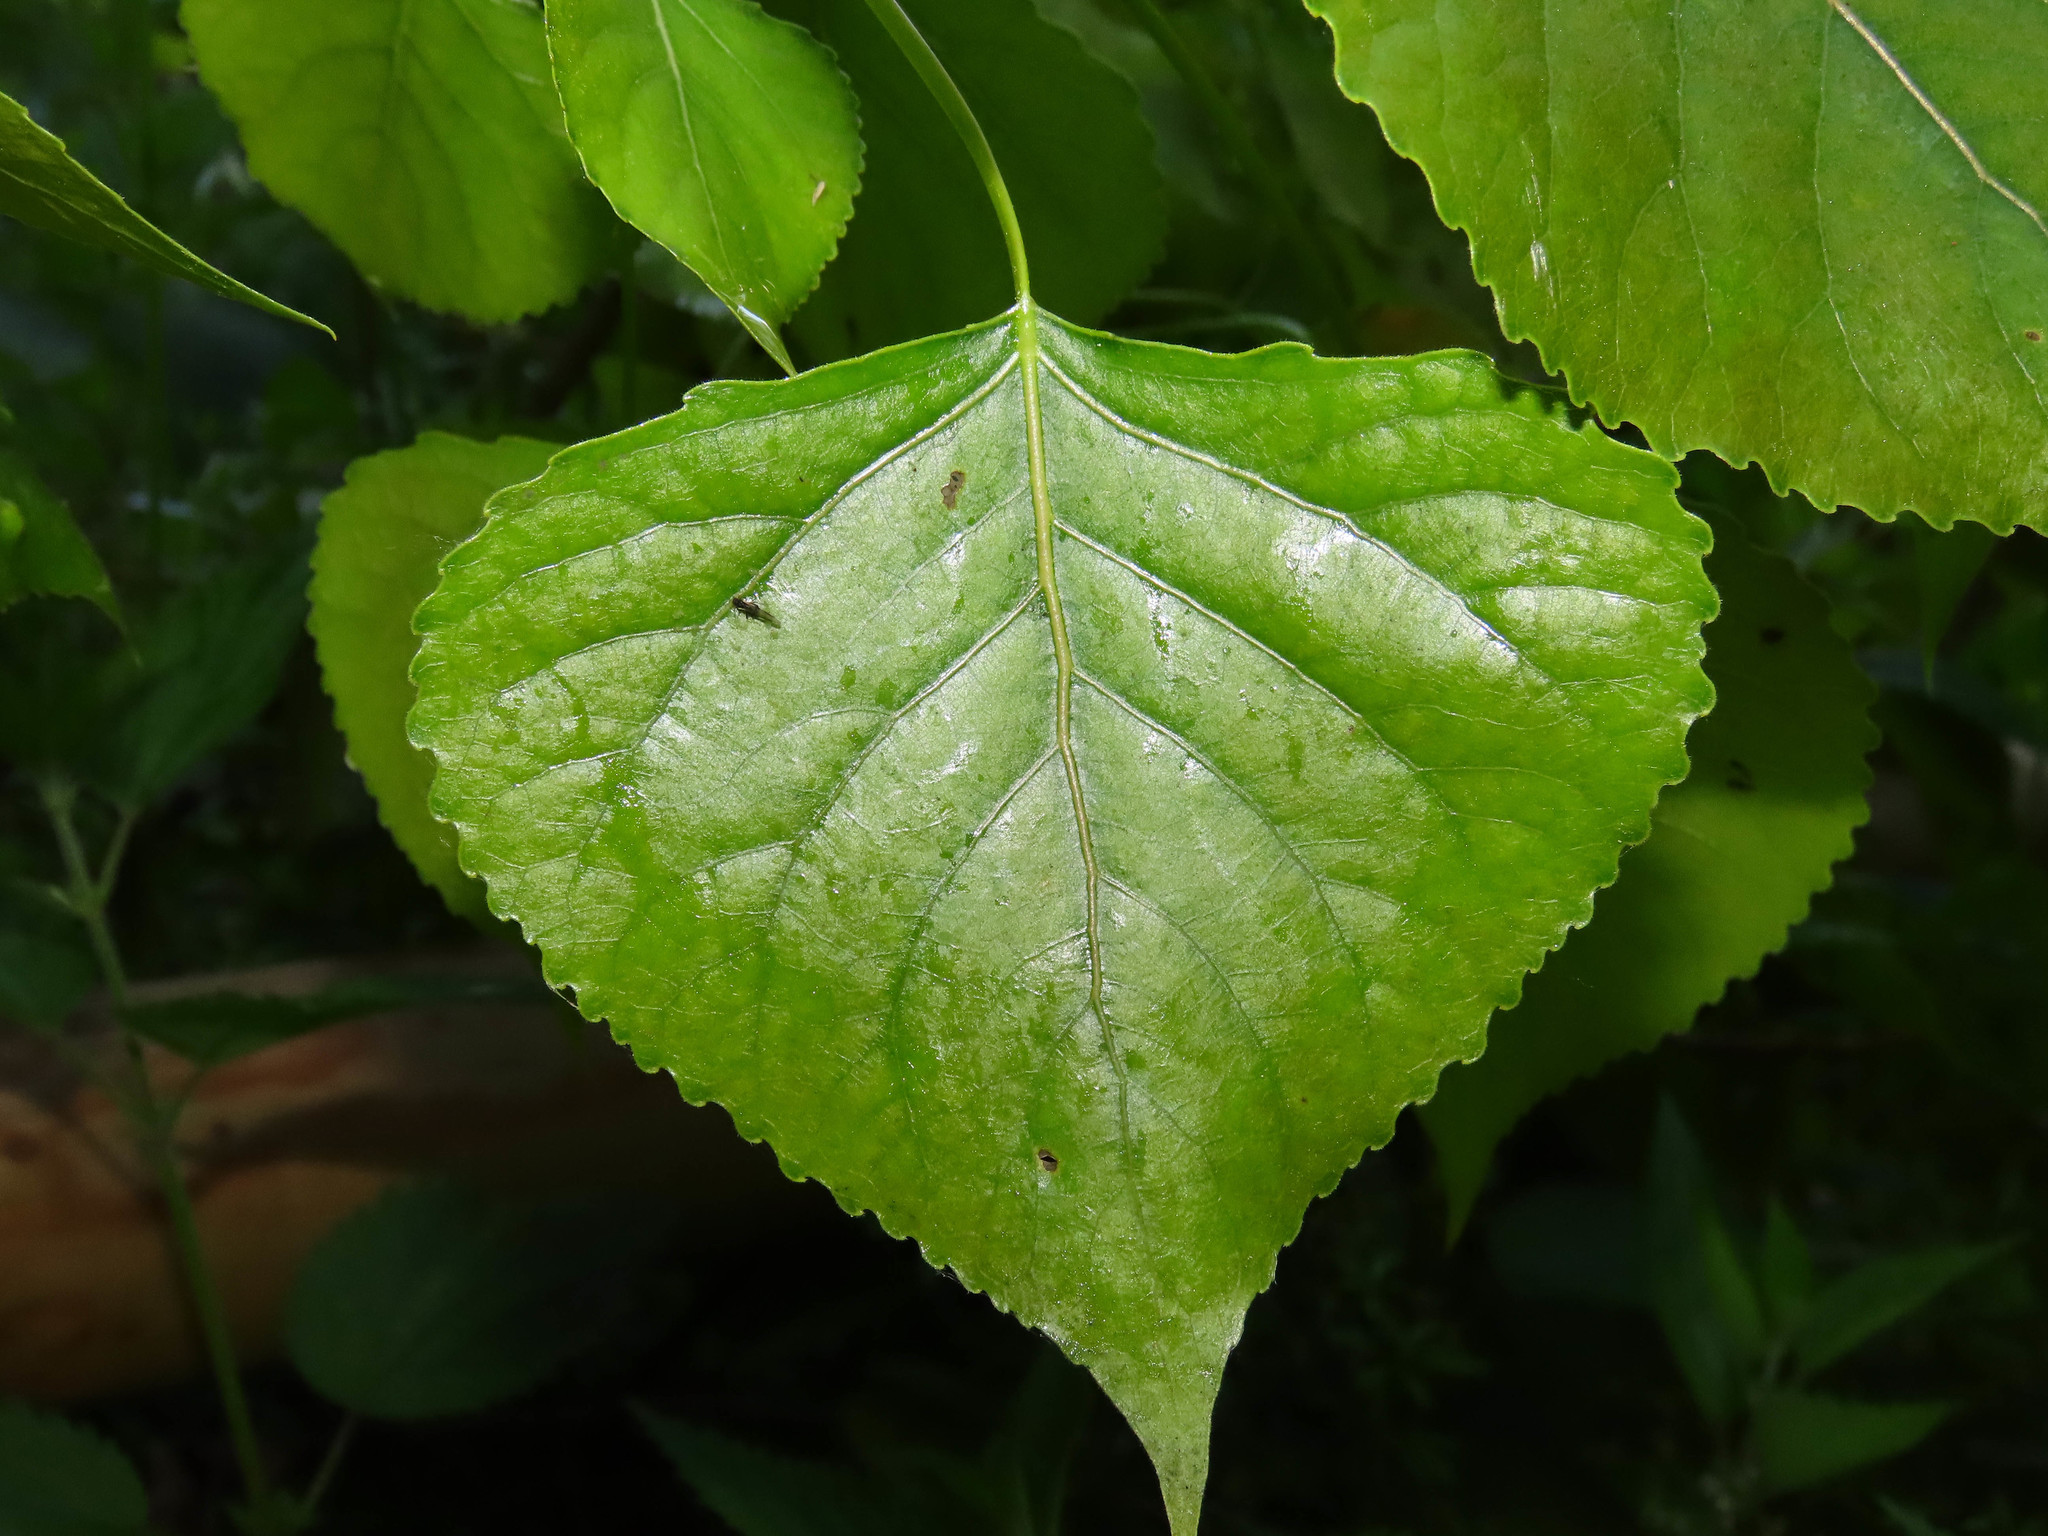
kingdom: Plantae
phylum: Tracheophyta
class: Magnoliopsida
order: Malpighiales
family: Salicaceae
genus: Populus
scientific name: Populus nigra
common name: Black poplar
